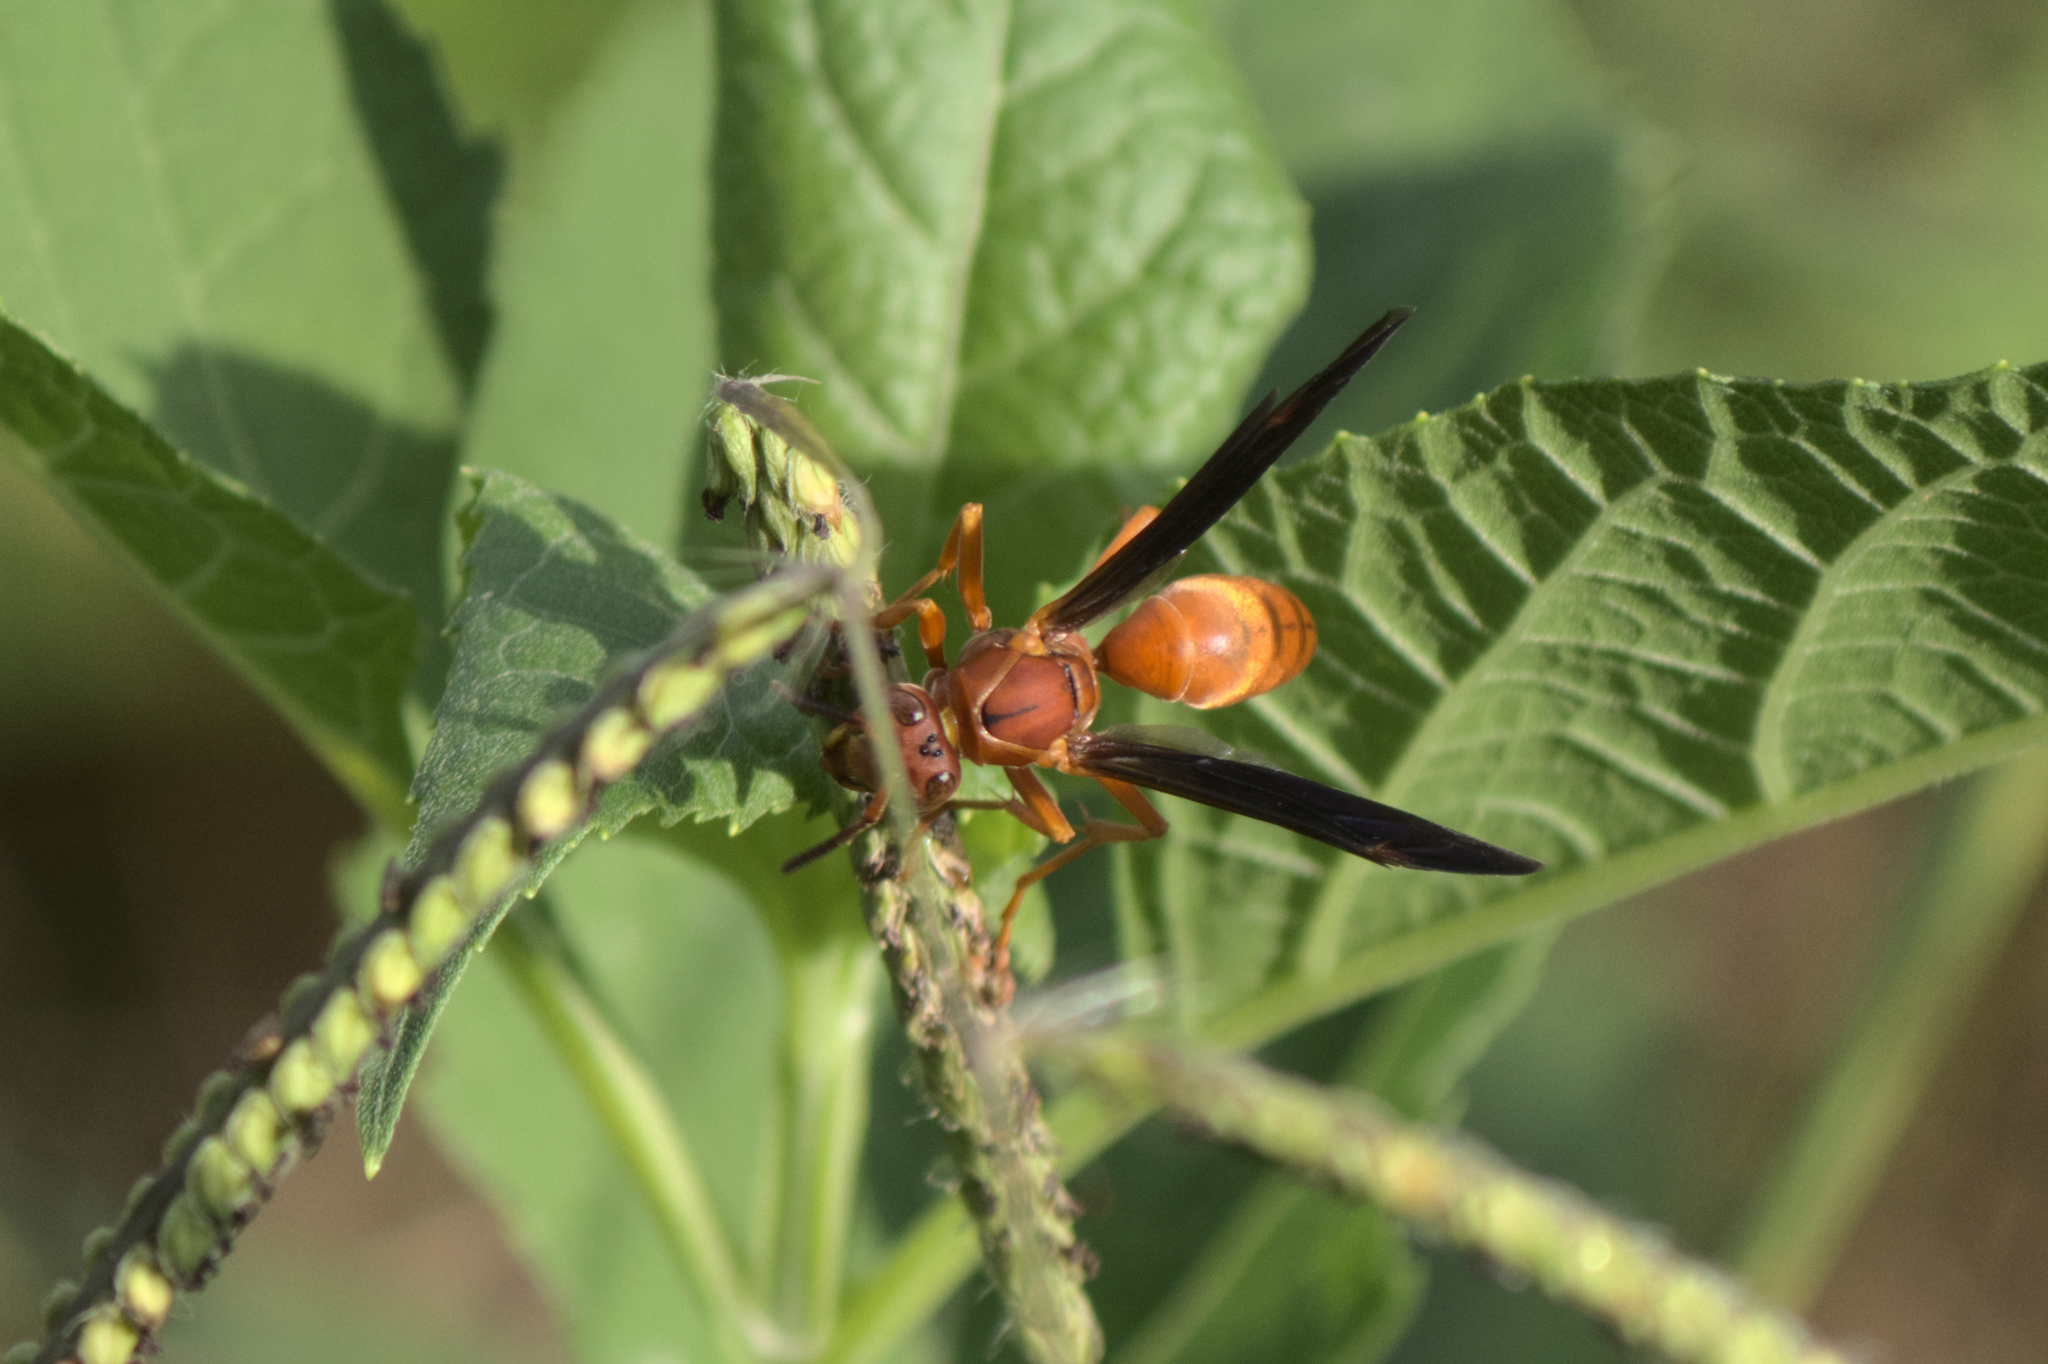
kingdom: Animalia
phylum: Arthropoda
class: Insecta
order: Hymenoptera
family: Vespidae
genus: Fuscopolistes
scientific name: Fuscopolistes
